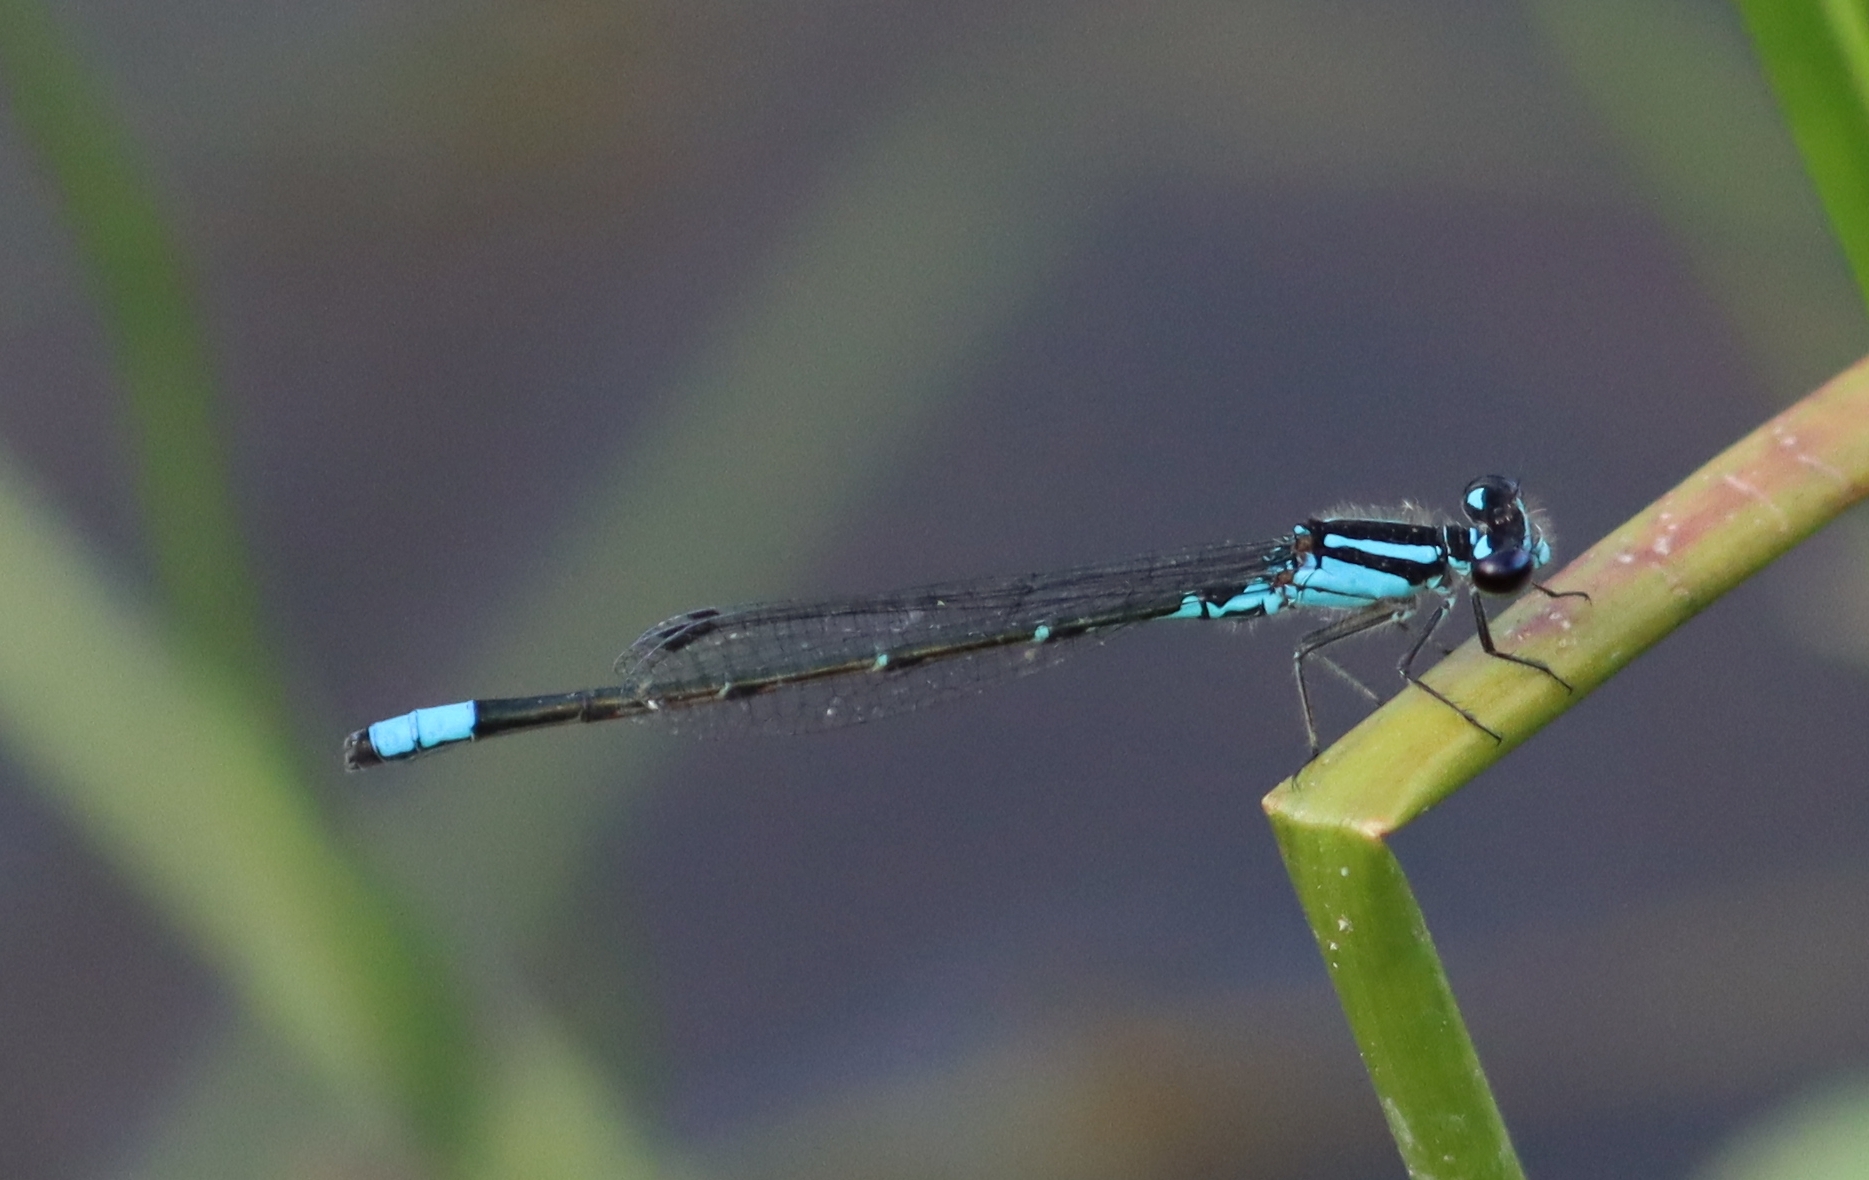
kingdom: Animalia
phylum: Arthropoda
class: Insecta
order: Odonata
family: Coenagrionidae
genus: Enallagma
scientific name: Enallagma geminatum
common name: Skimming bluet
